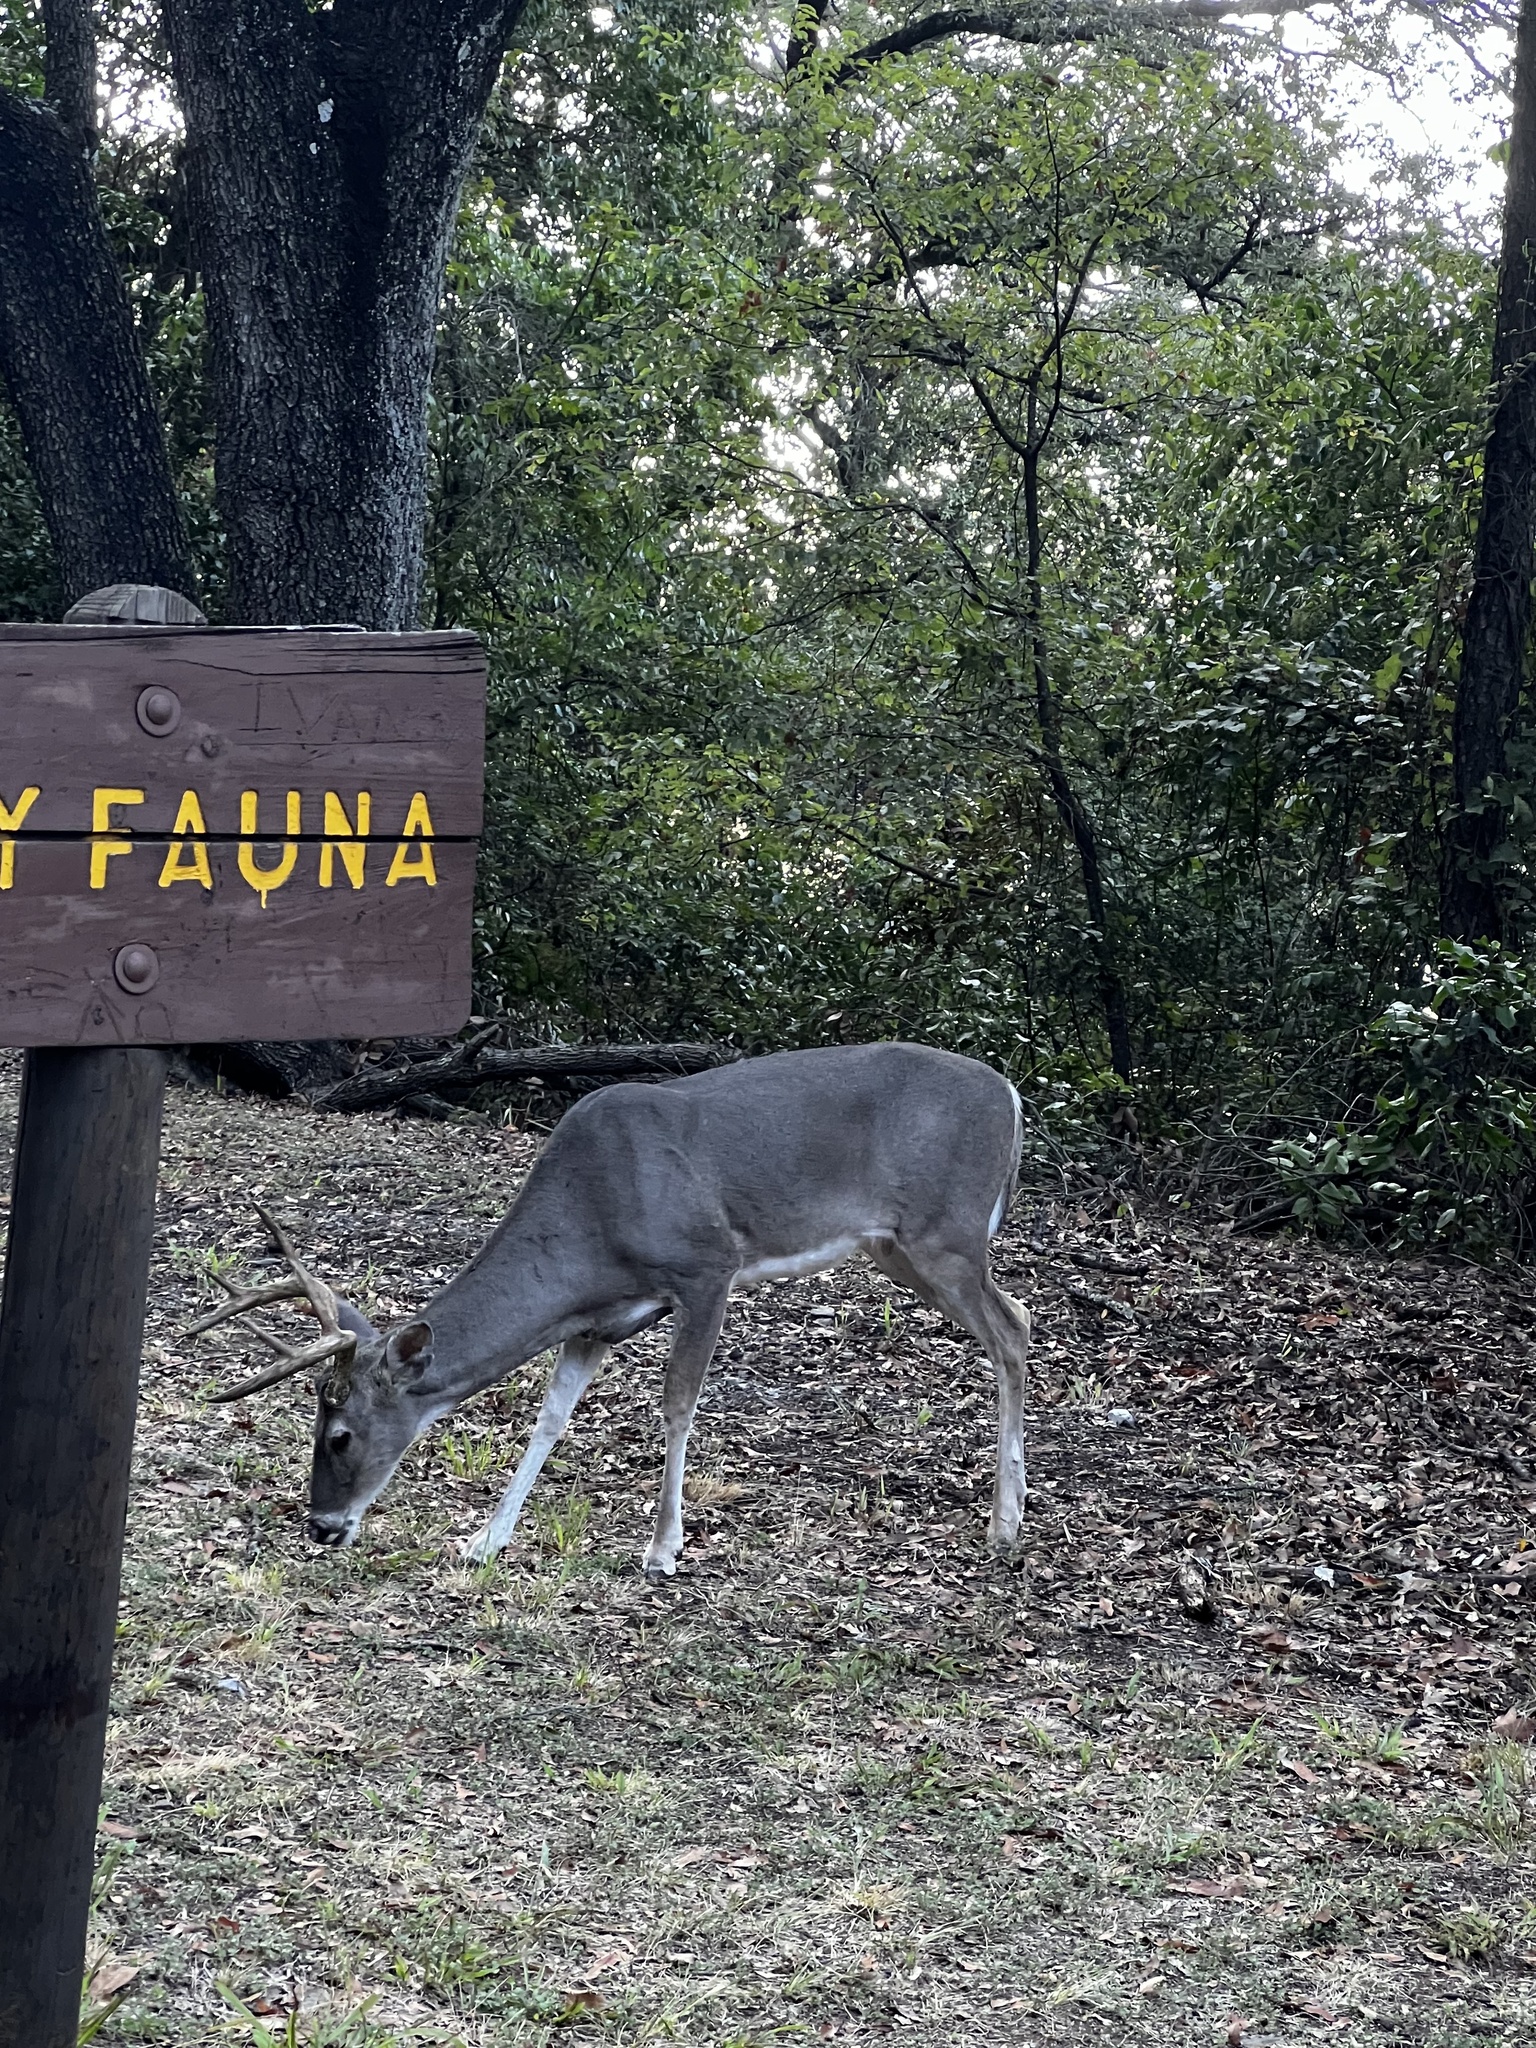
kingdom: Animalia
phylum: Chordata
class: Mammalia
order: Artiodactyla
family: Cervidae
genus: Odocoileus
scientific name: Odocoileus virginianus
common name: White-tailed deer
